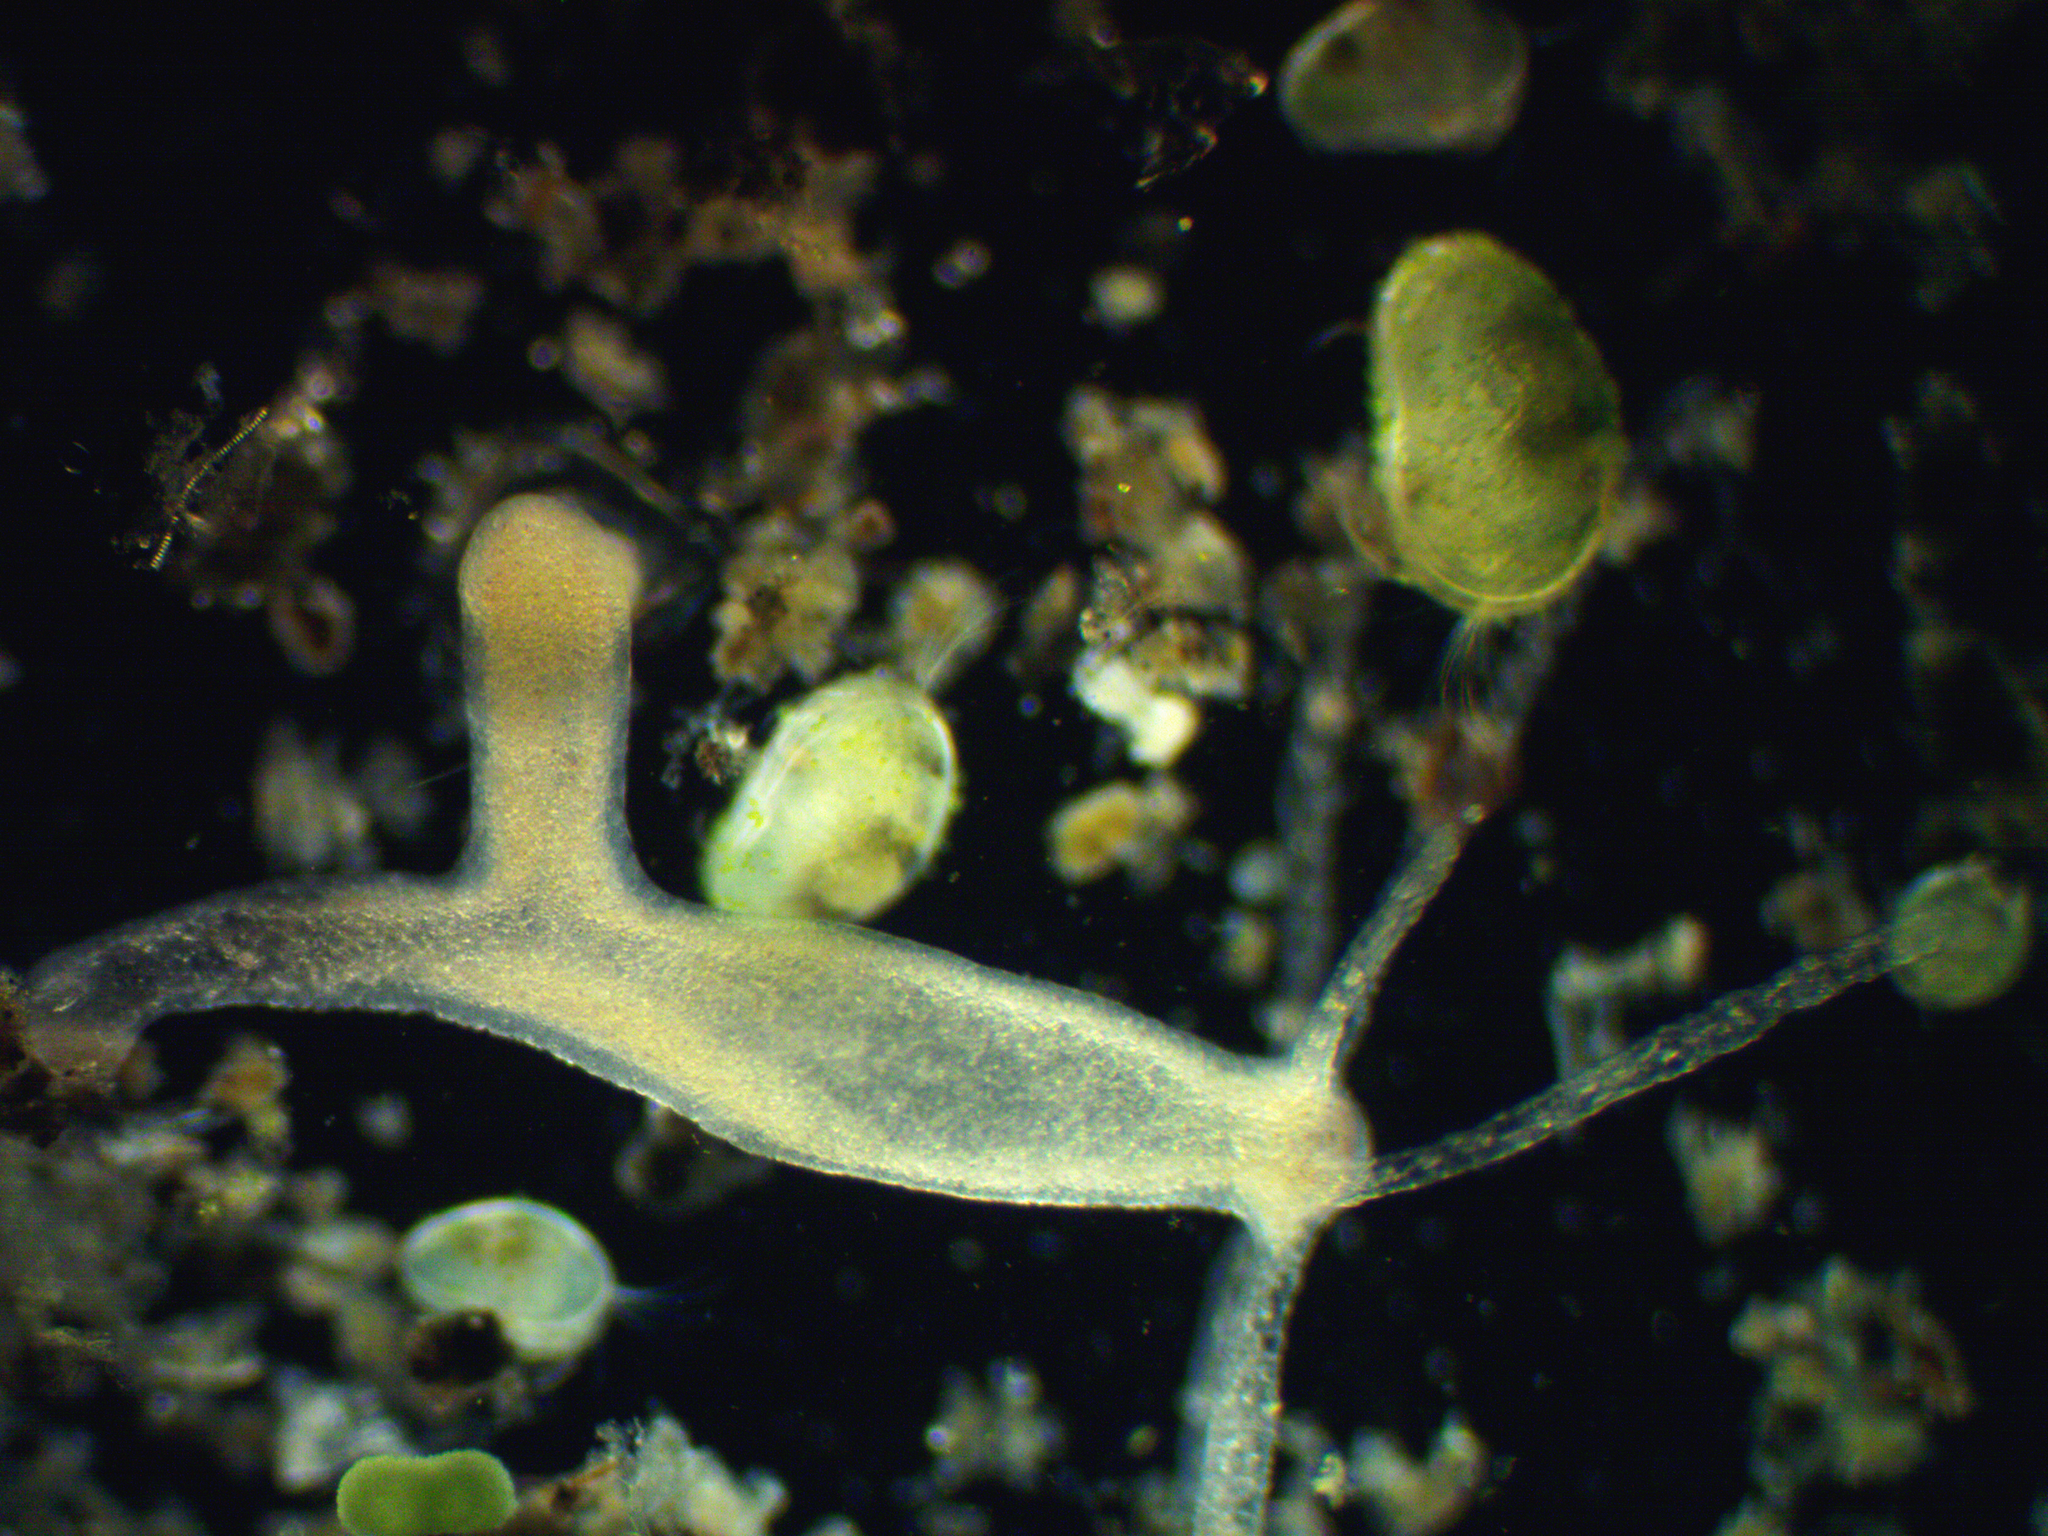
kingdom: Animalia
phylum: Cnidaria
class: Hydrozoa
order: Anthoathecata
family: Hydridae
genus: Hydra
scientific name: Hydra oligactis
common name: Brown hydra
